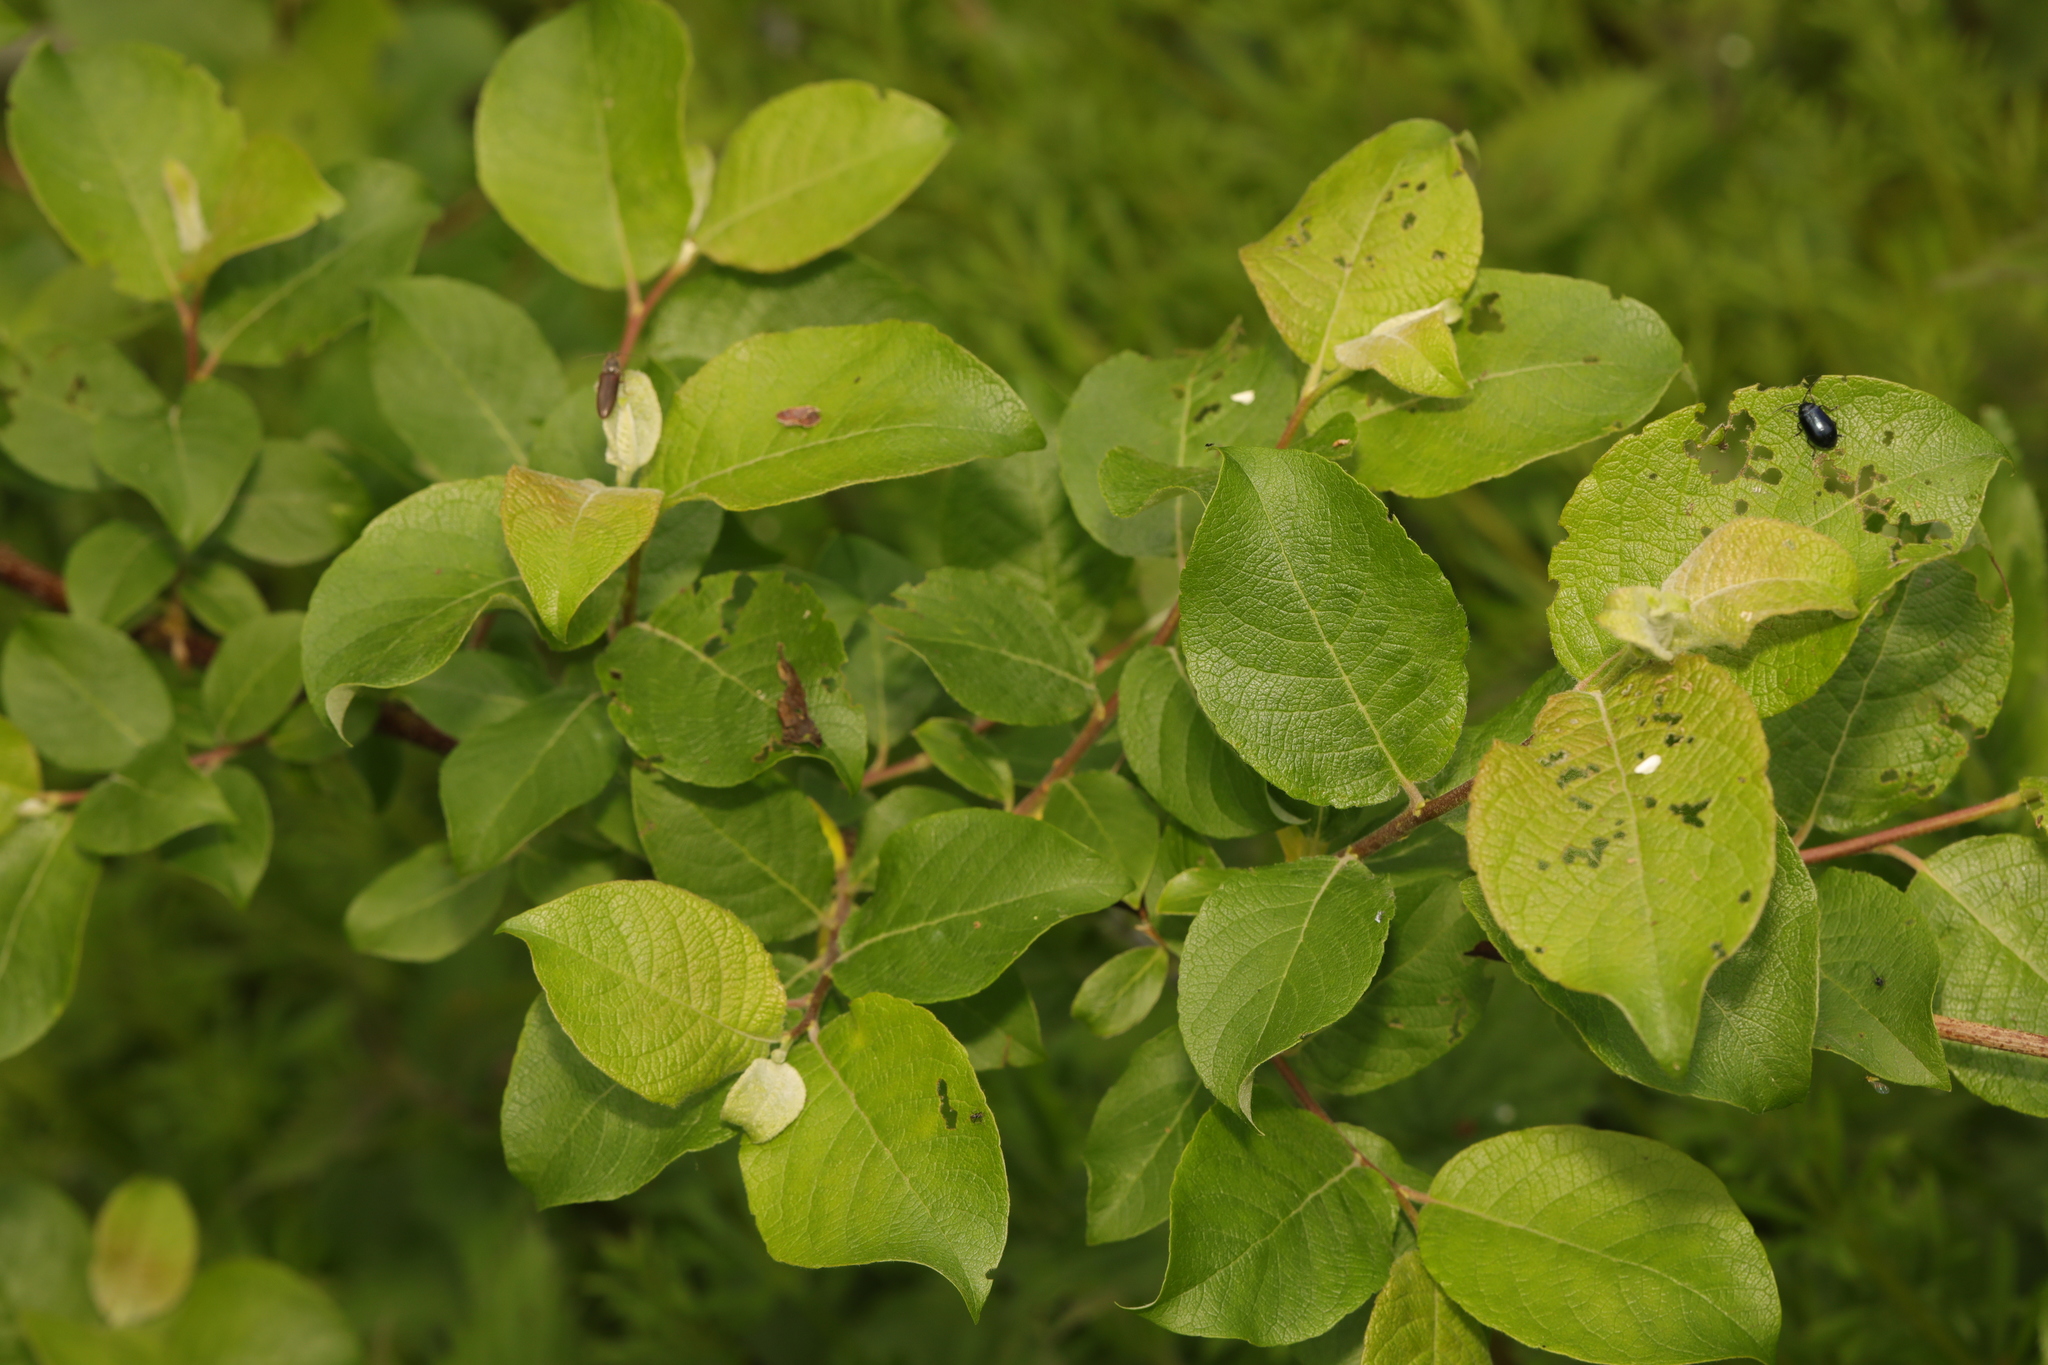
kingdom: Plantae
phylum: Tracheophyta
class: Magnoliopsida
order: Malpighiales
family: Salicaceae
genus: Salix
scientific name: Salix caprea
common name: Goat willow
